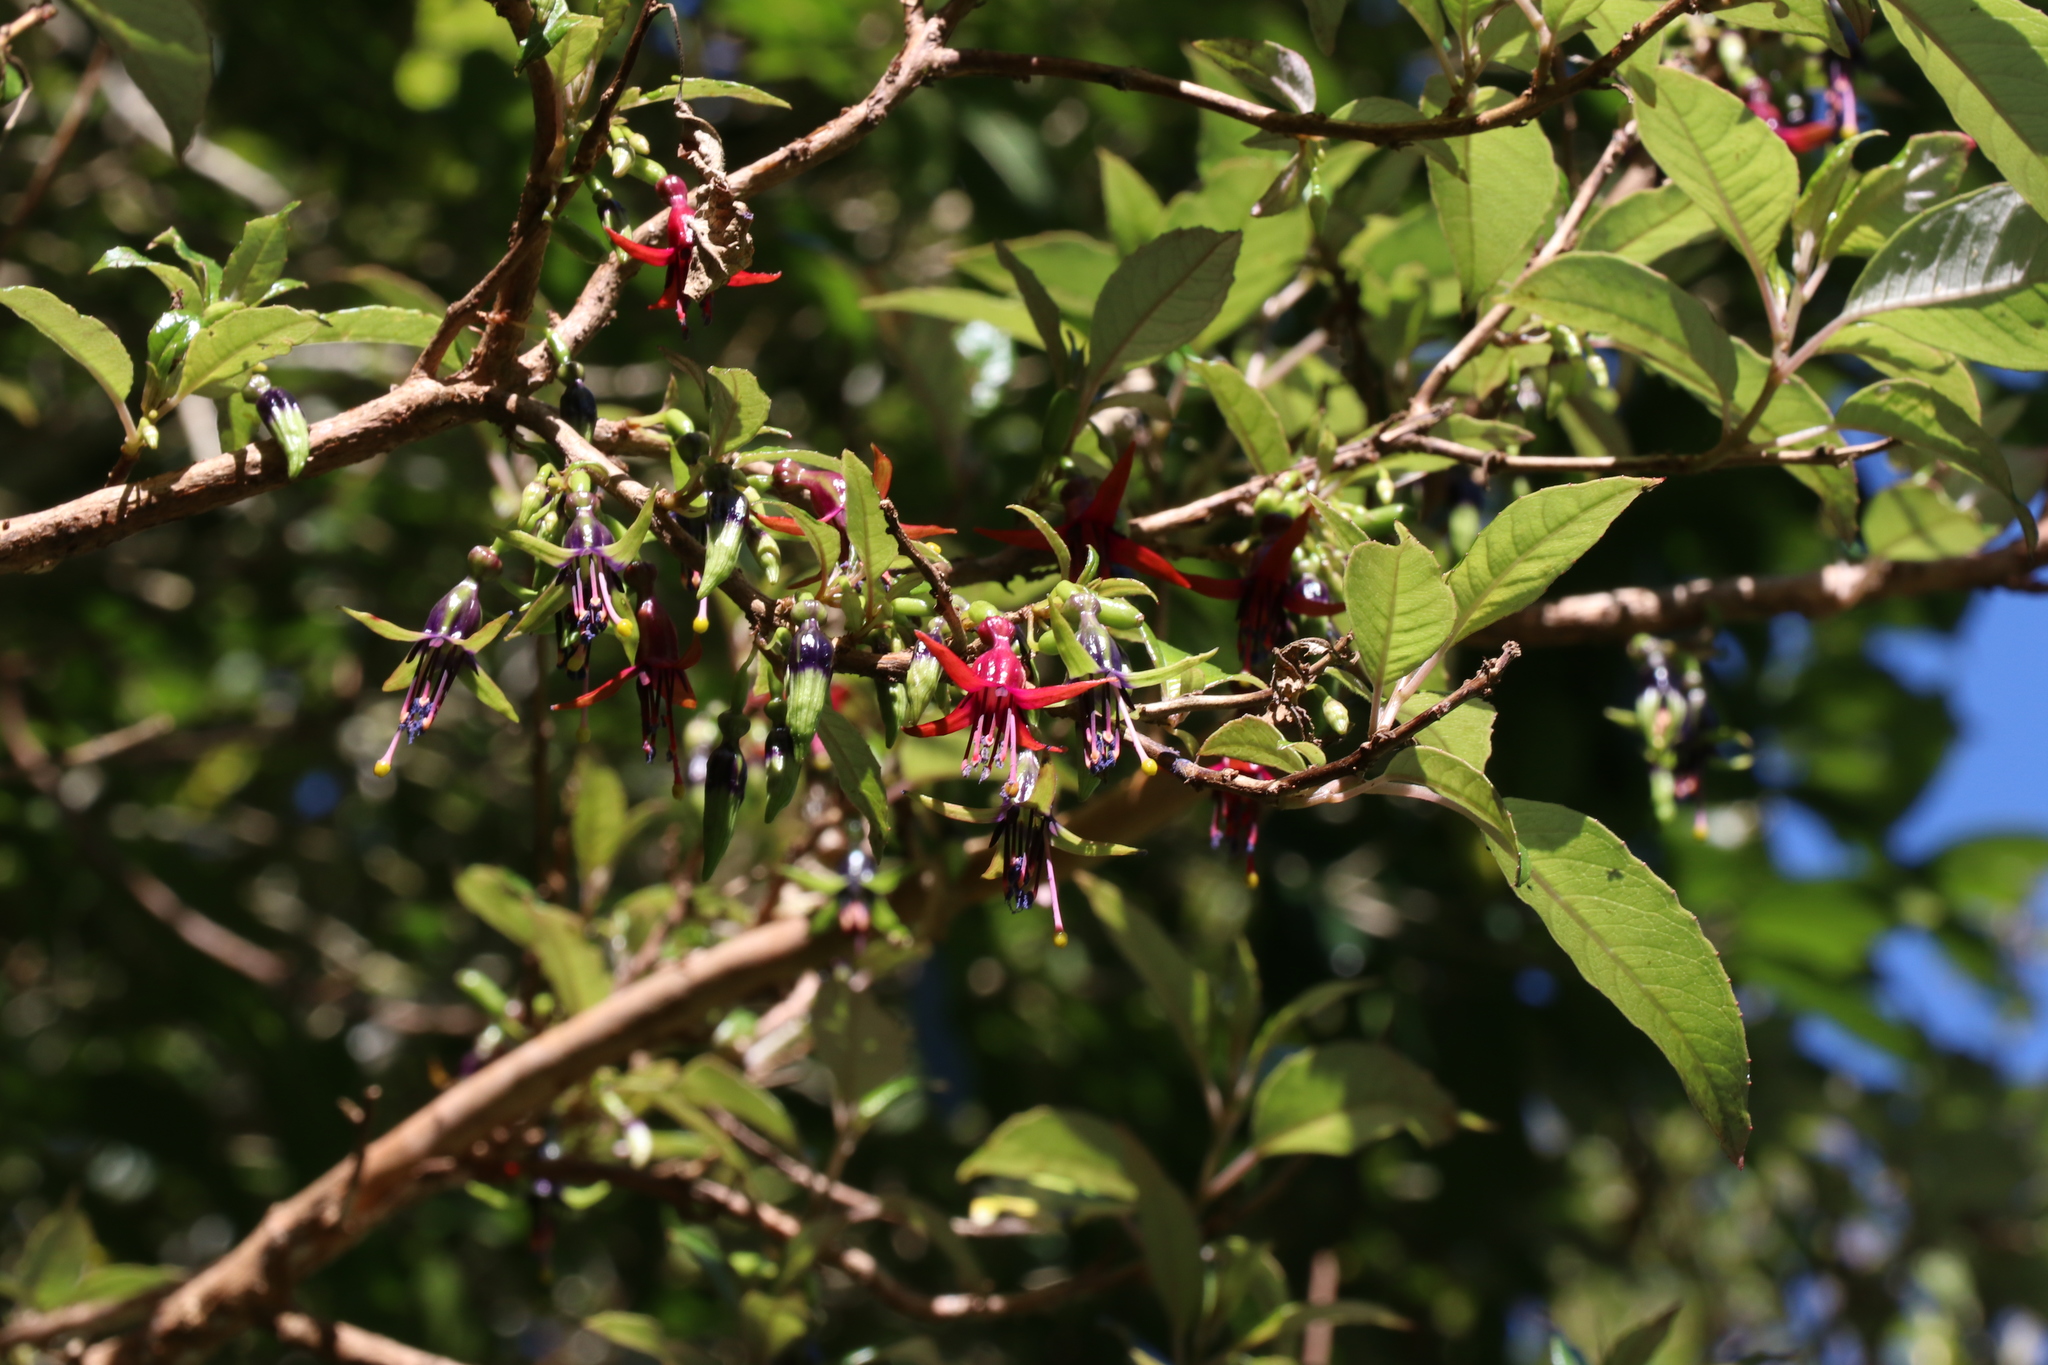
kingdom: Plantae
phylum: Tracheophyta
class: Magnoliopsida
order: Myrtales
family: Onagraceae
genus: Fuchsia
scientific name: Fuchsia excorticata
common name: Tree fuchsia
